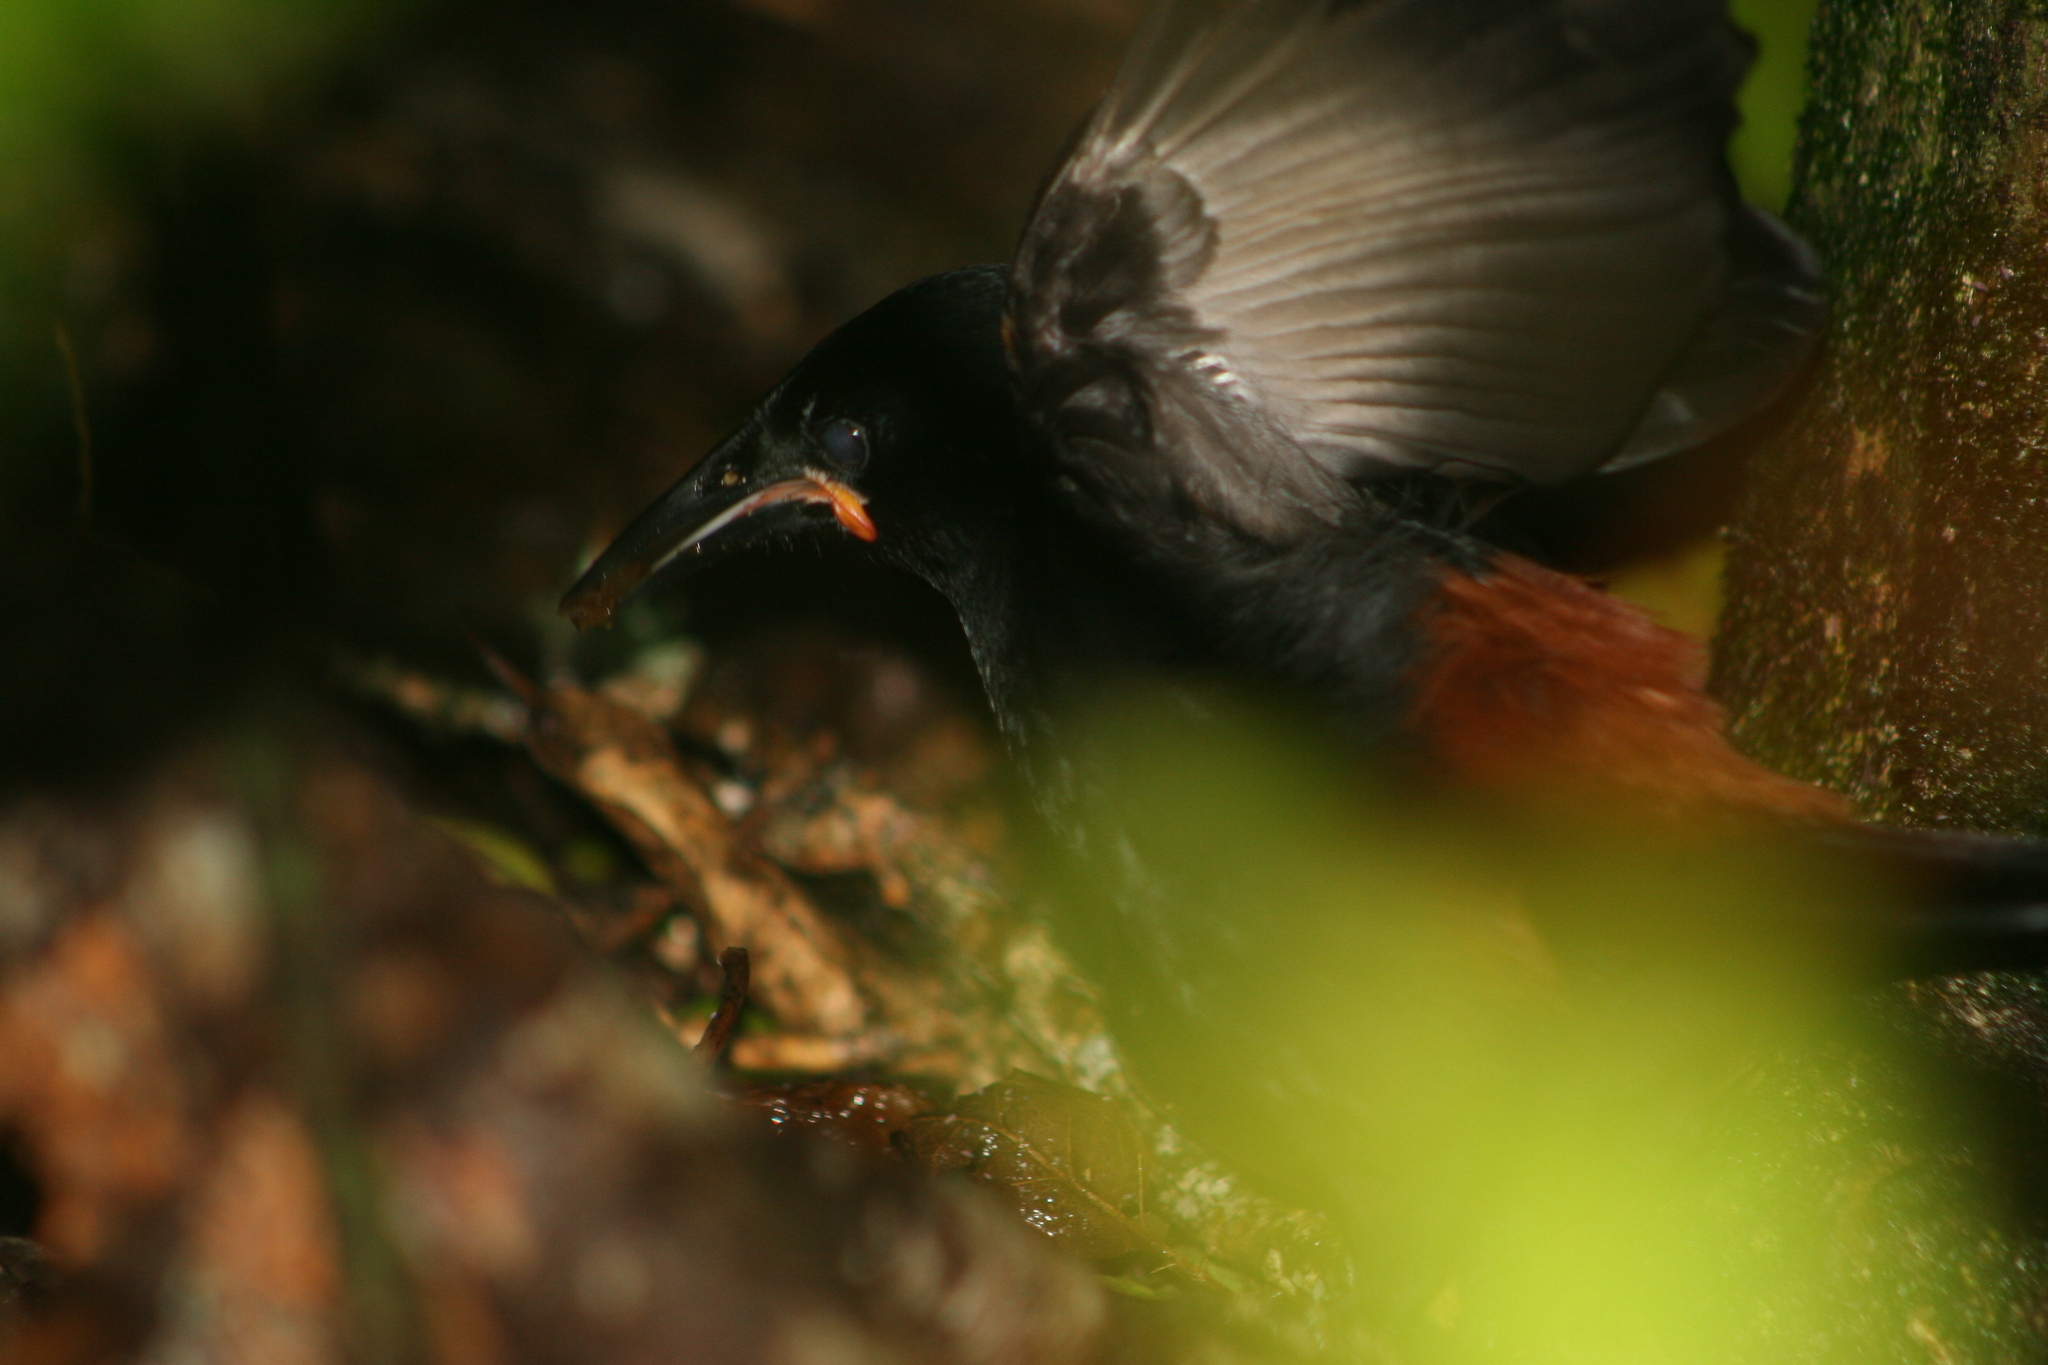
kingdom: Animalia
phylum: Chordata
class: Aves
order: Passeriformes
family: Callaeatidae
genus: Philesturnus
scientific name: Philesturnus carunculatus
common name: South island saddleback
